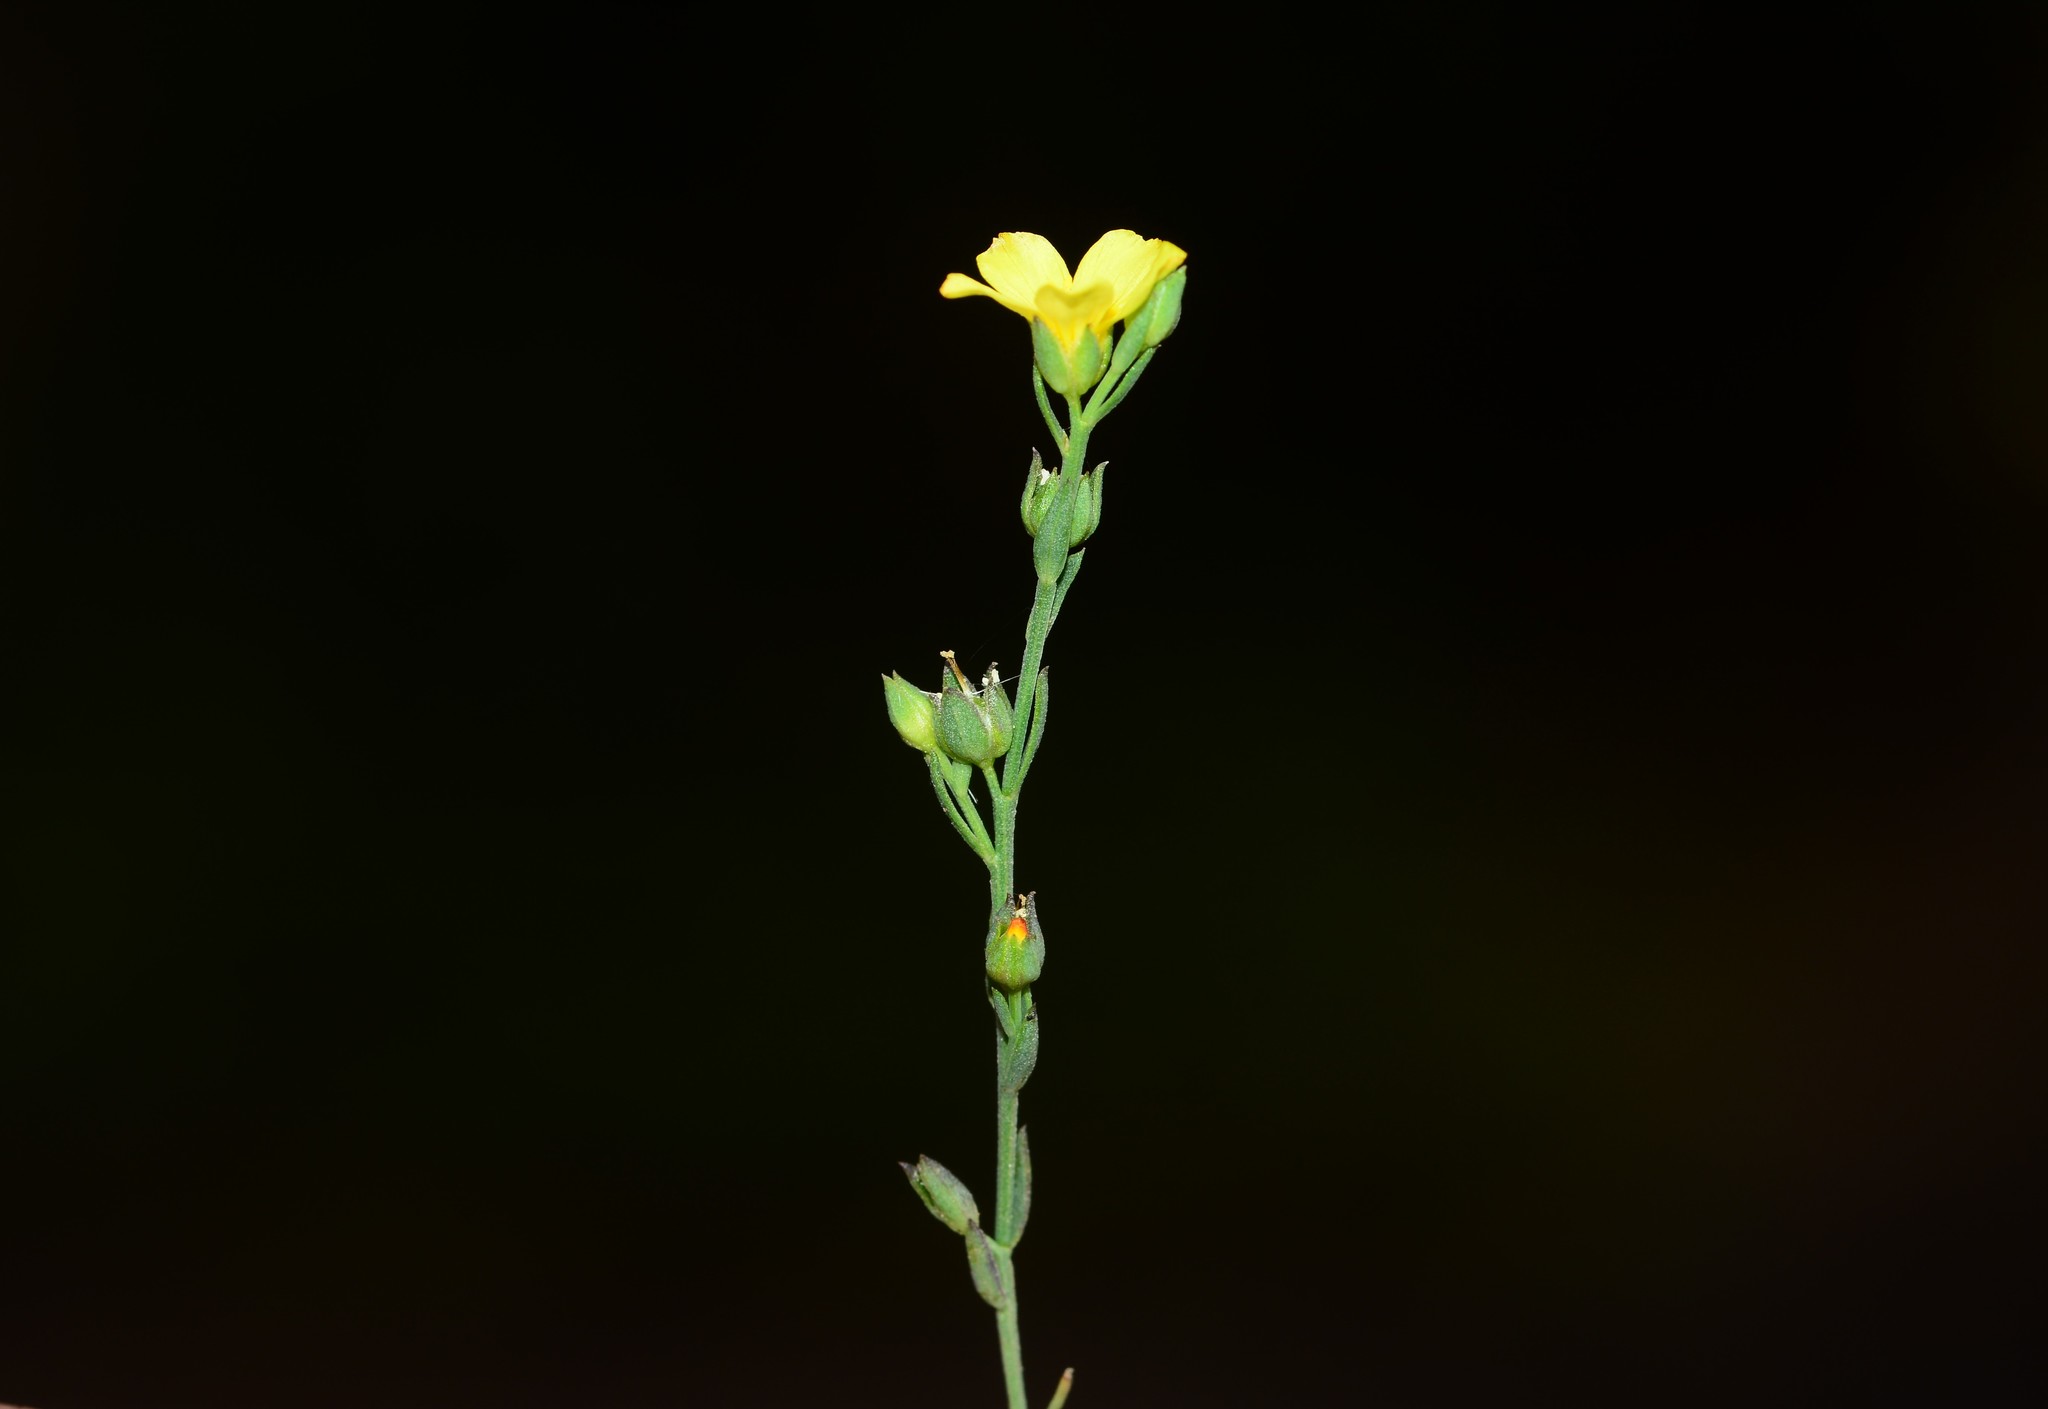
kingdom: Plantae
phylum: Tracheophyta
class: Magnoliopsida
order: Malpighiales
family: Linaceae
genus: Linum
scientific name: Linum mysorense
